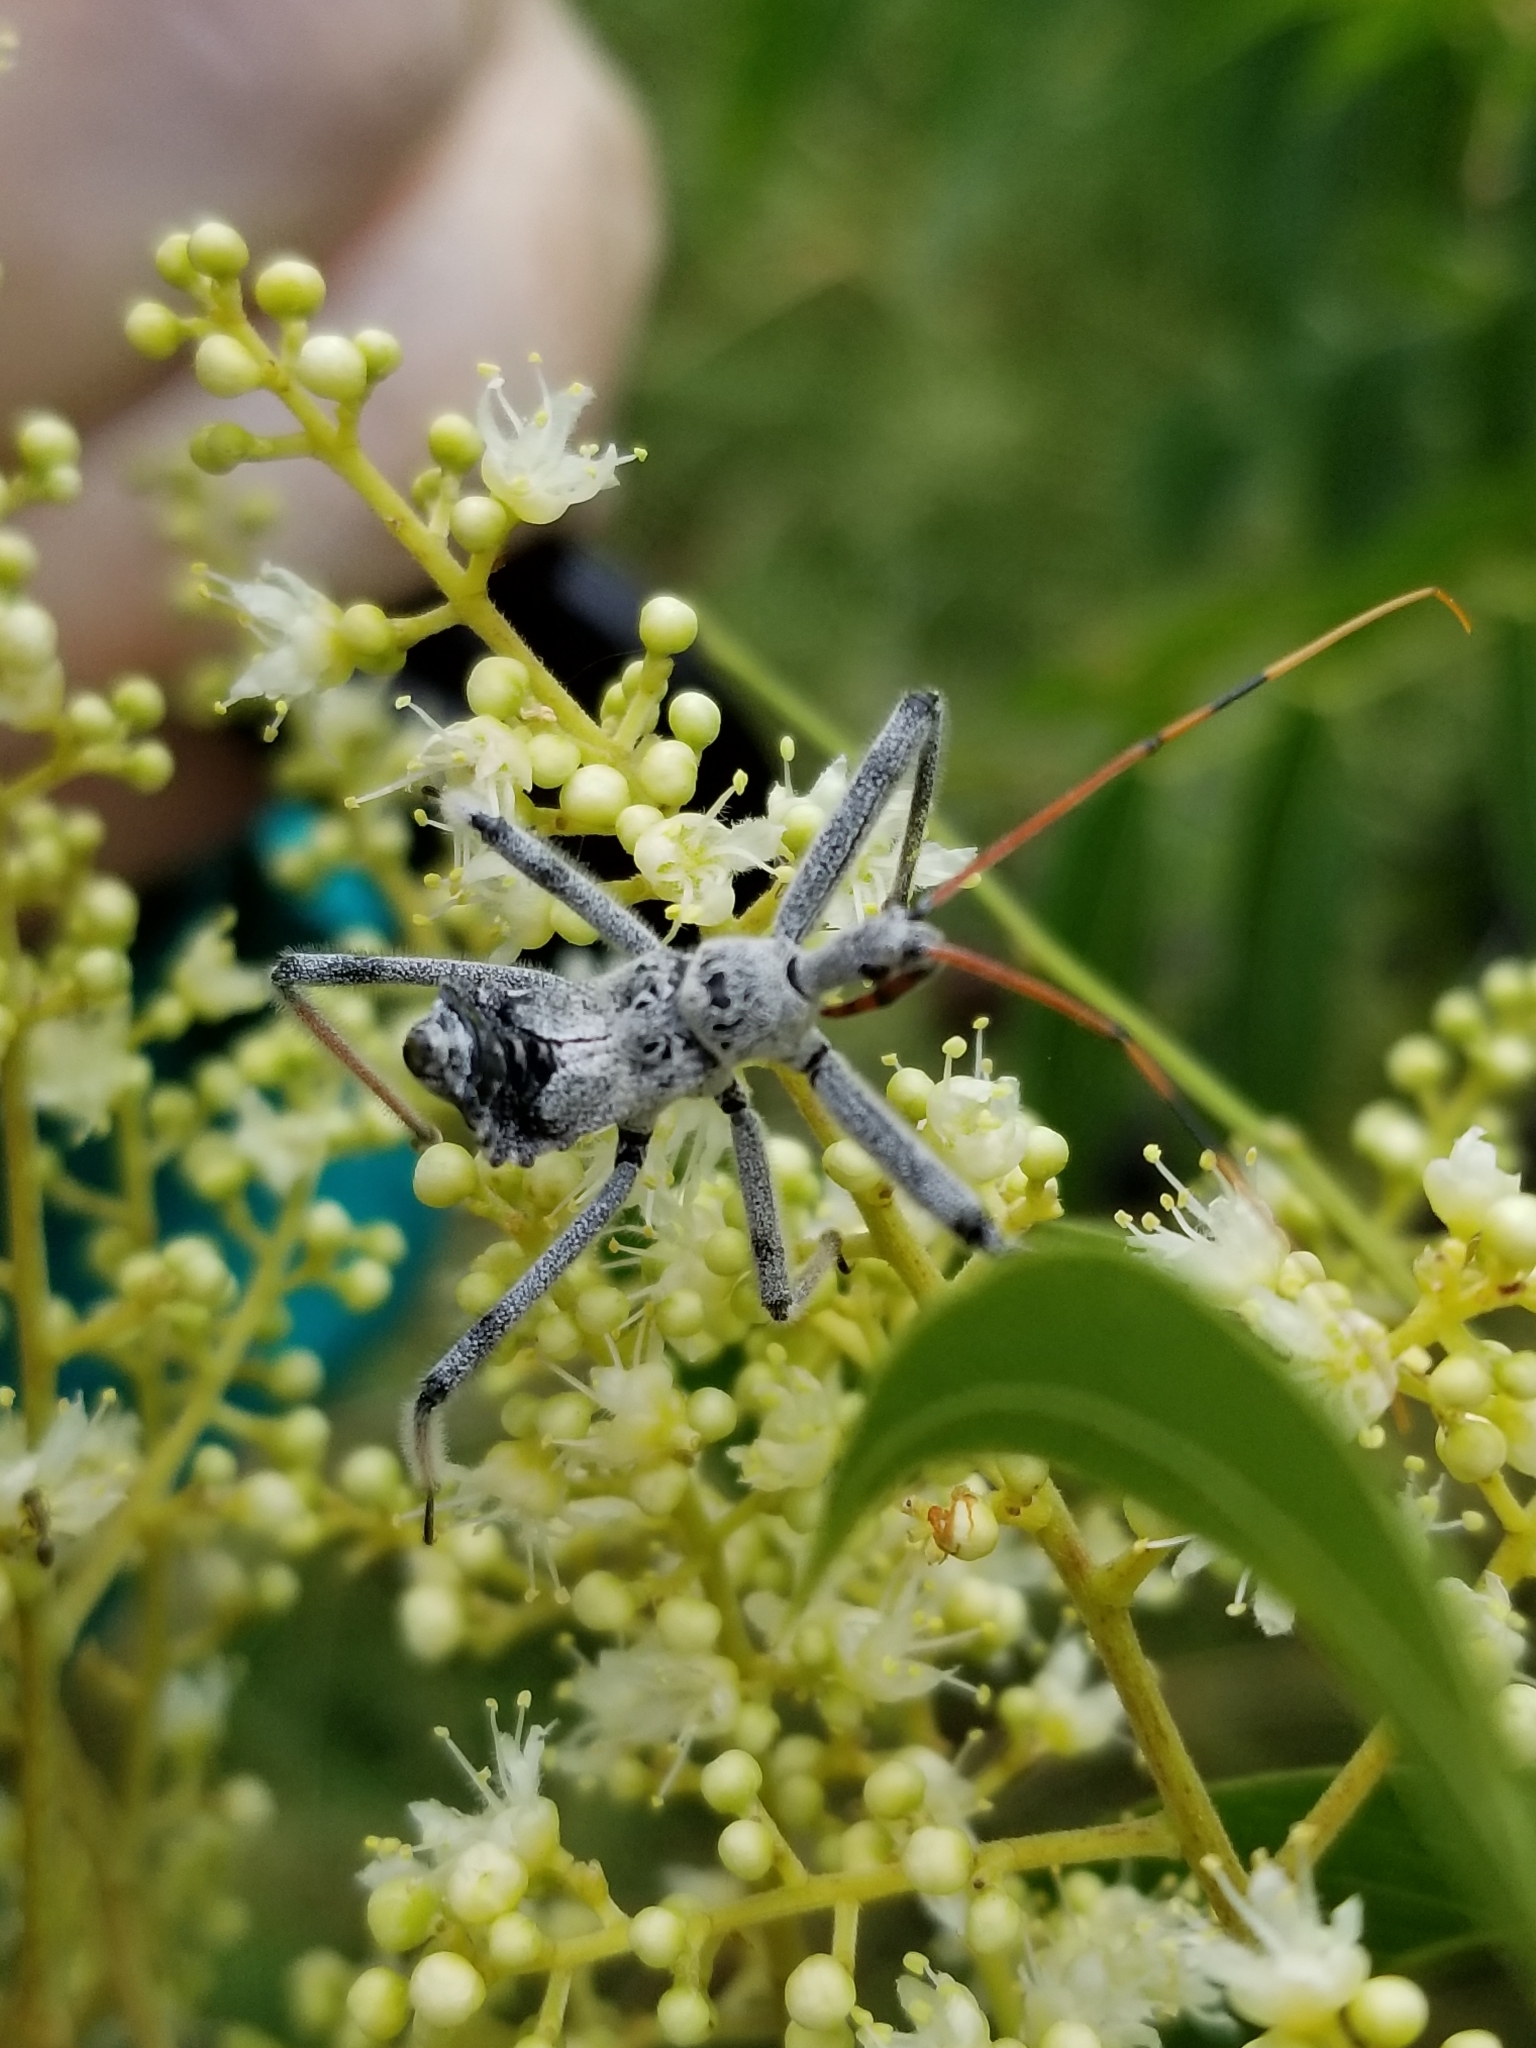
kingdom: Animalia
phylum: Arthropoda
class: Insecta
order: Hemiptera
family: Reduviidae
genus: Arilus
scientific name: Arilus cristatus
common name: North american wheel bug
